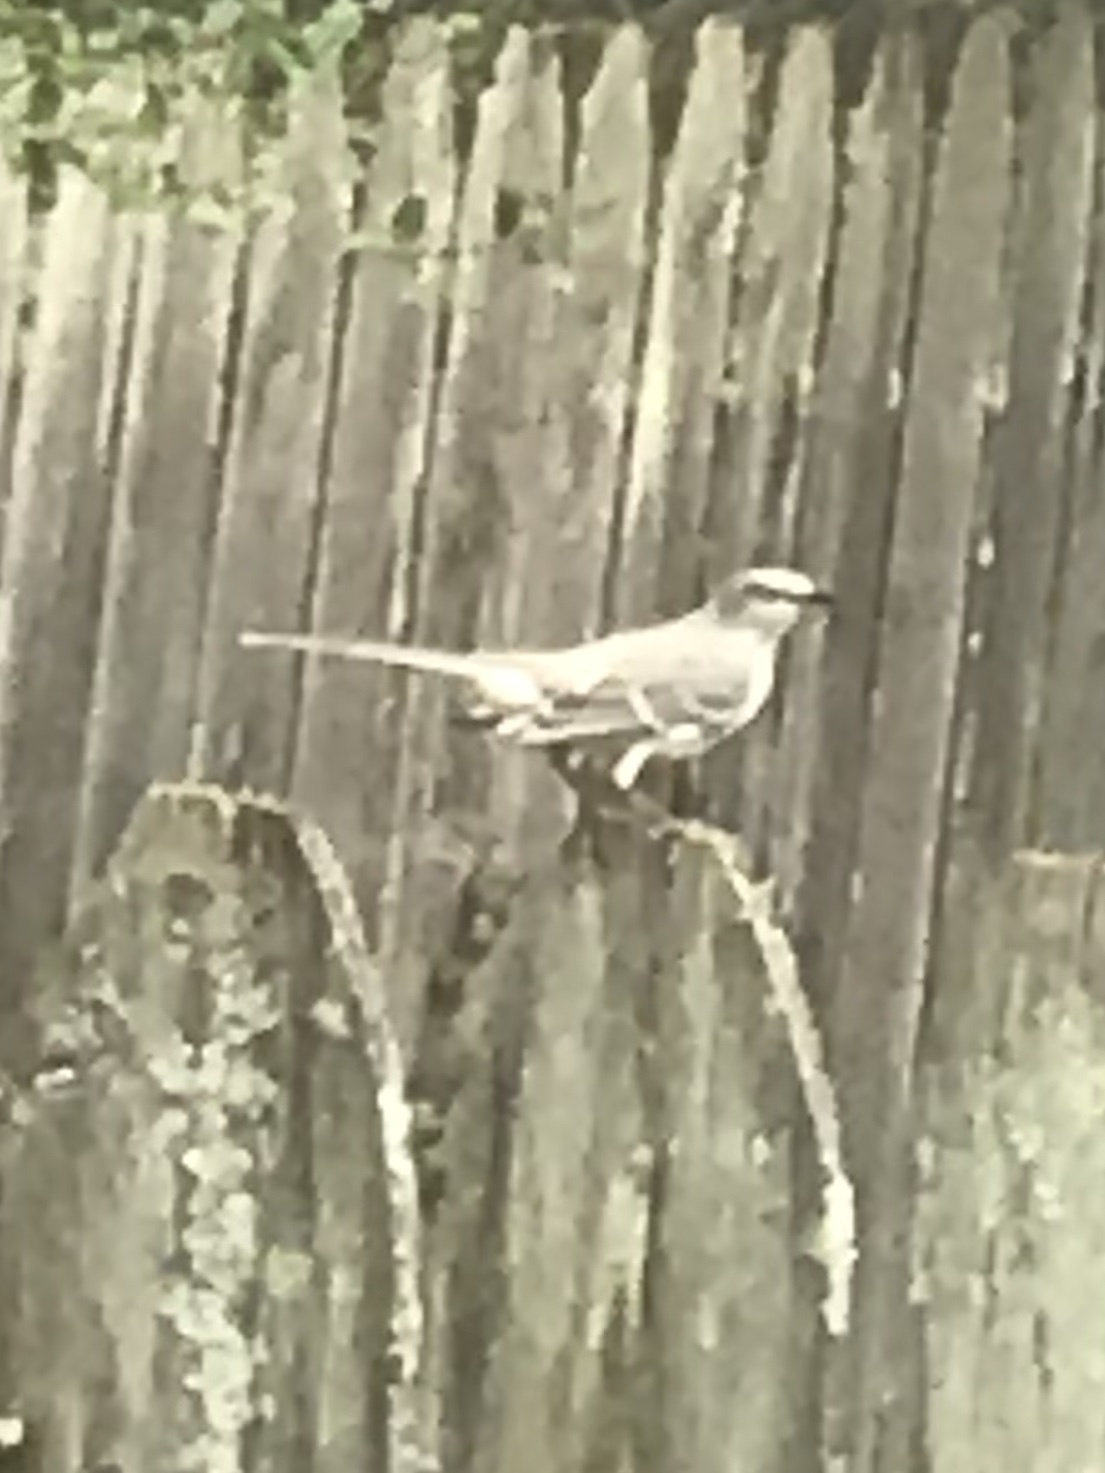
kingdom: Animalia
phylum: Chordata
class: Aves
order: Passeriformes
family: Mimidae
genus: Mimus
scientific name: Mimus polyglottos
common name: Northern mockingbird
